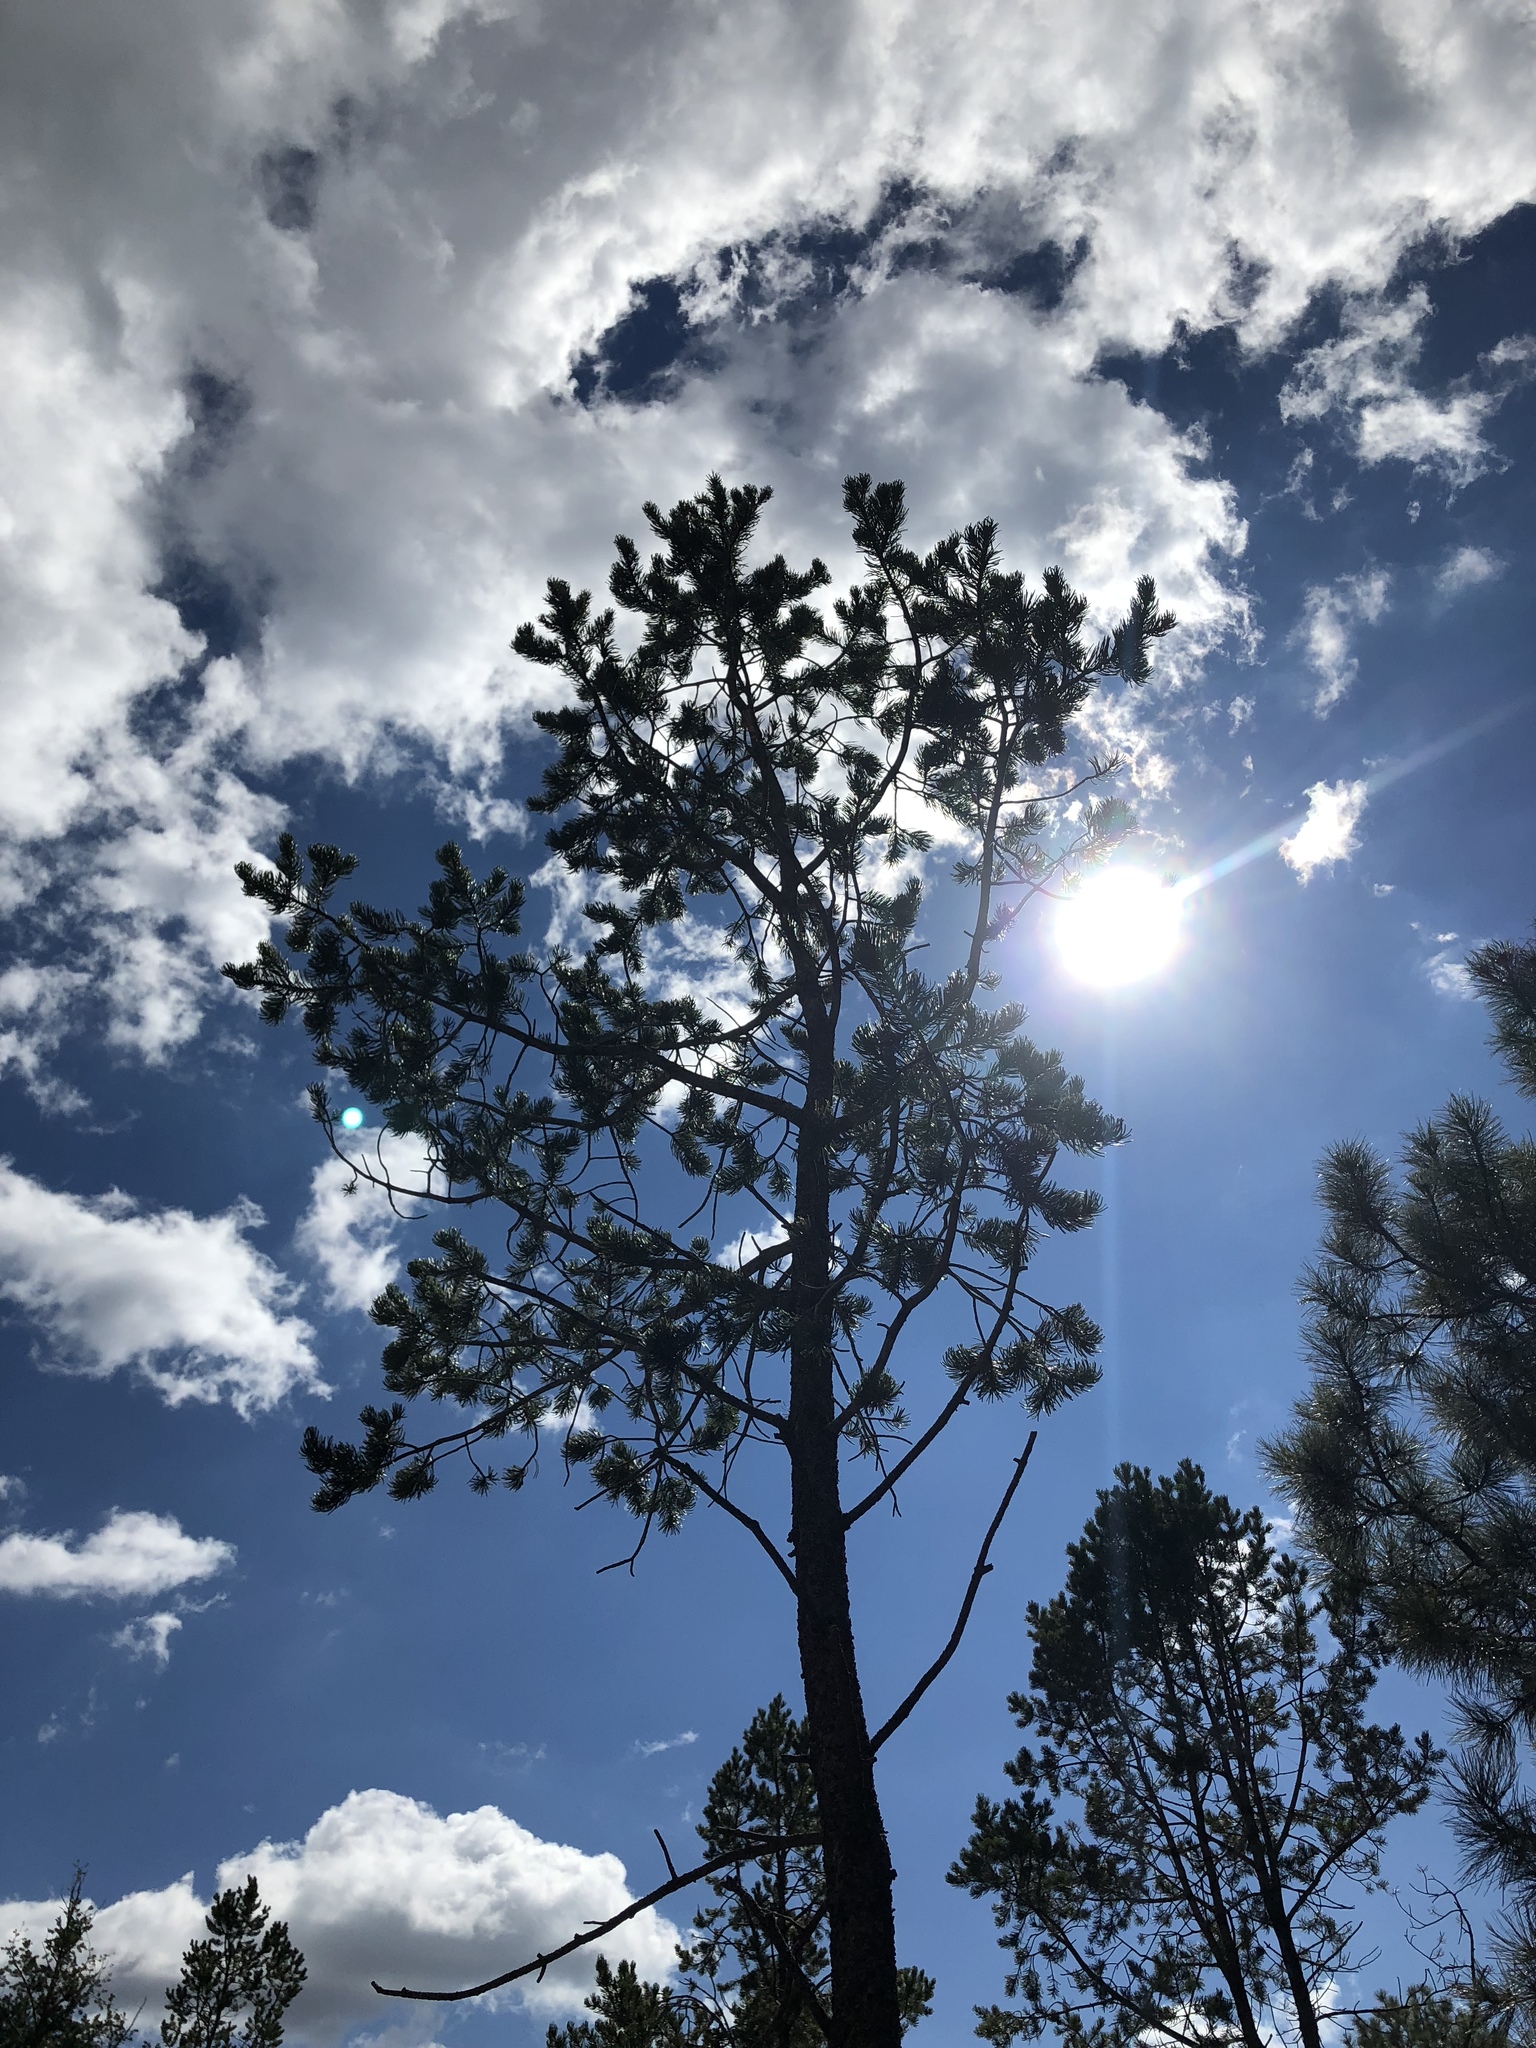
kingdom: Plantae
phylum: Tracheophyta
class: Pinopsida
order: Pinales
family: Pinaceae
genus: Pinus
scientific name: Pinus edulis
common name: Colorado pinyon
